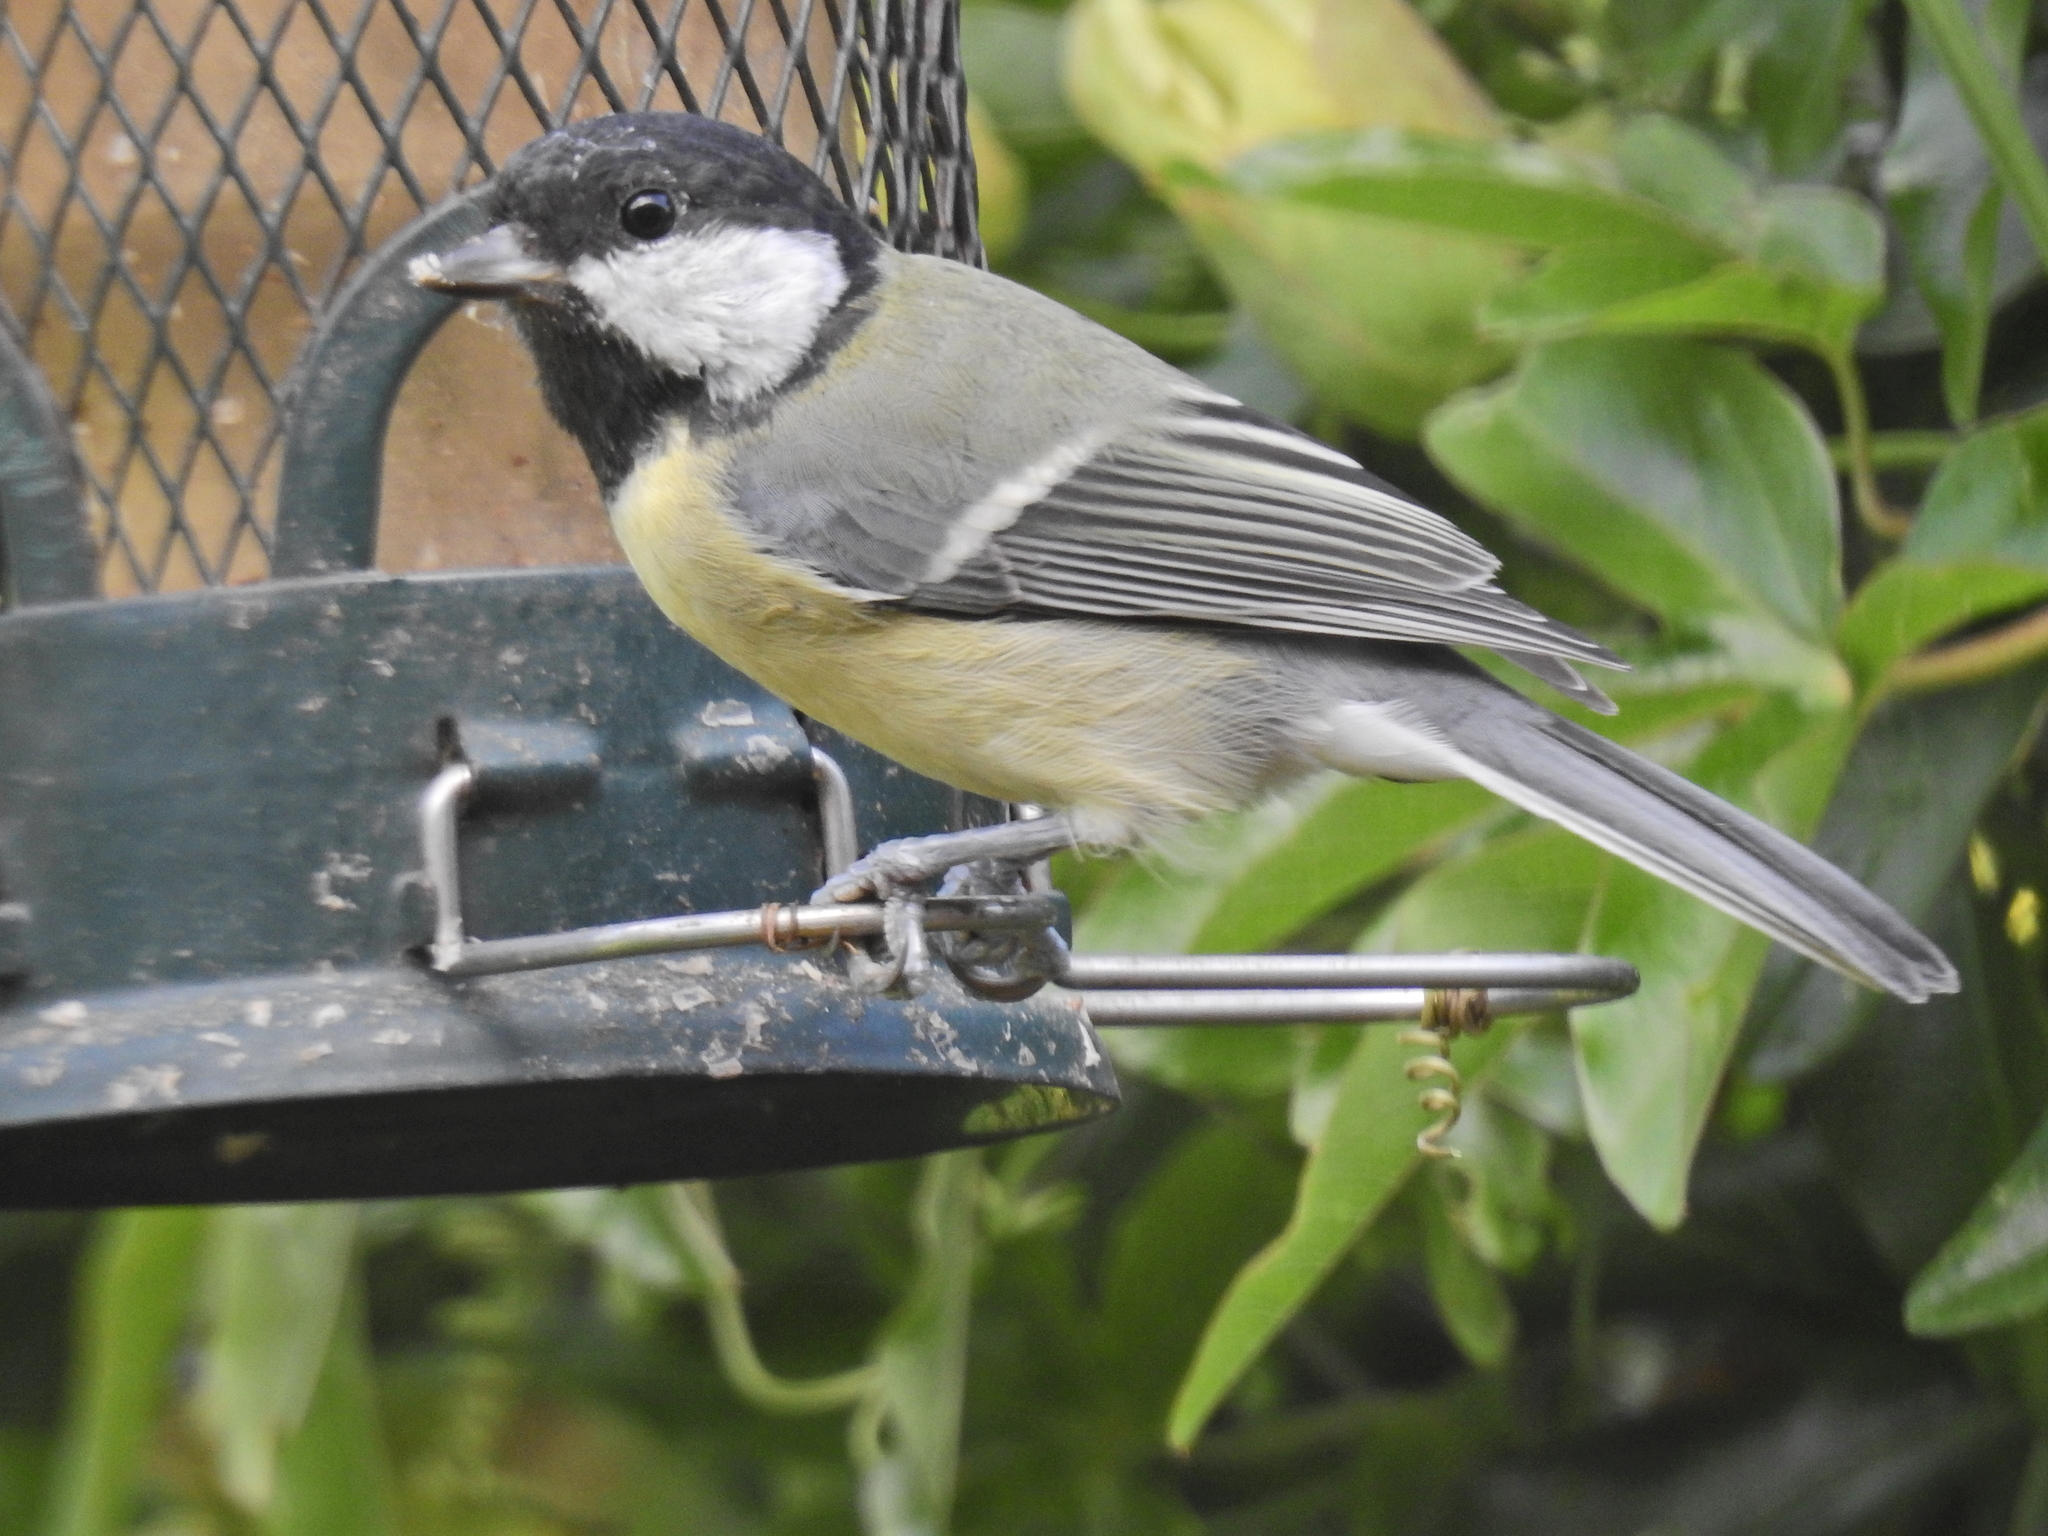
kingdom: Animalia
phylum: Chordata
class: Aves
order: Passeriformes
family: Paridae
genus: Parus
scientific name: Parus major
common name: Great tit
